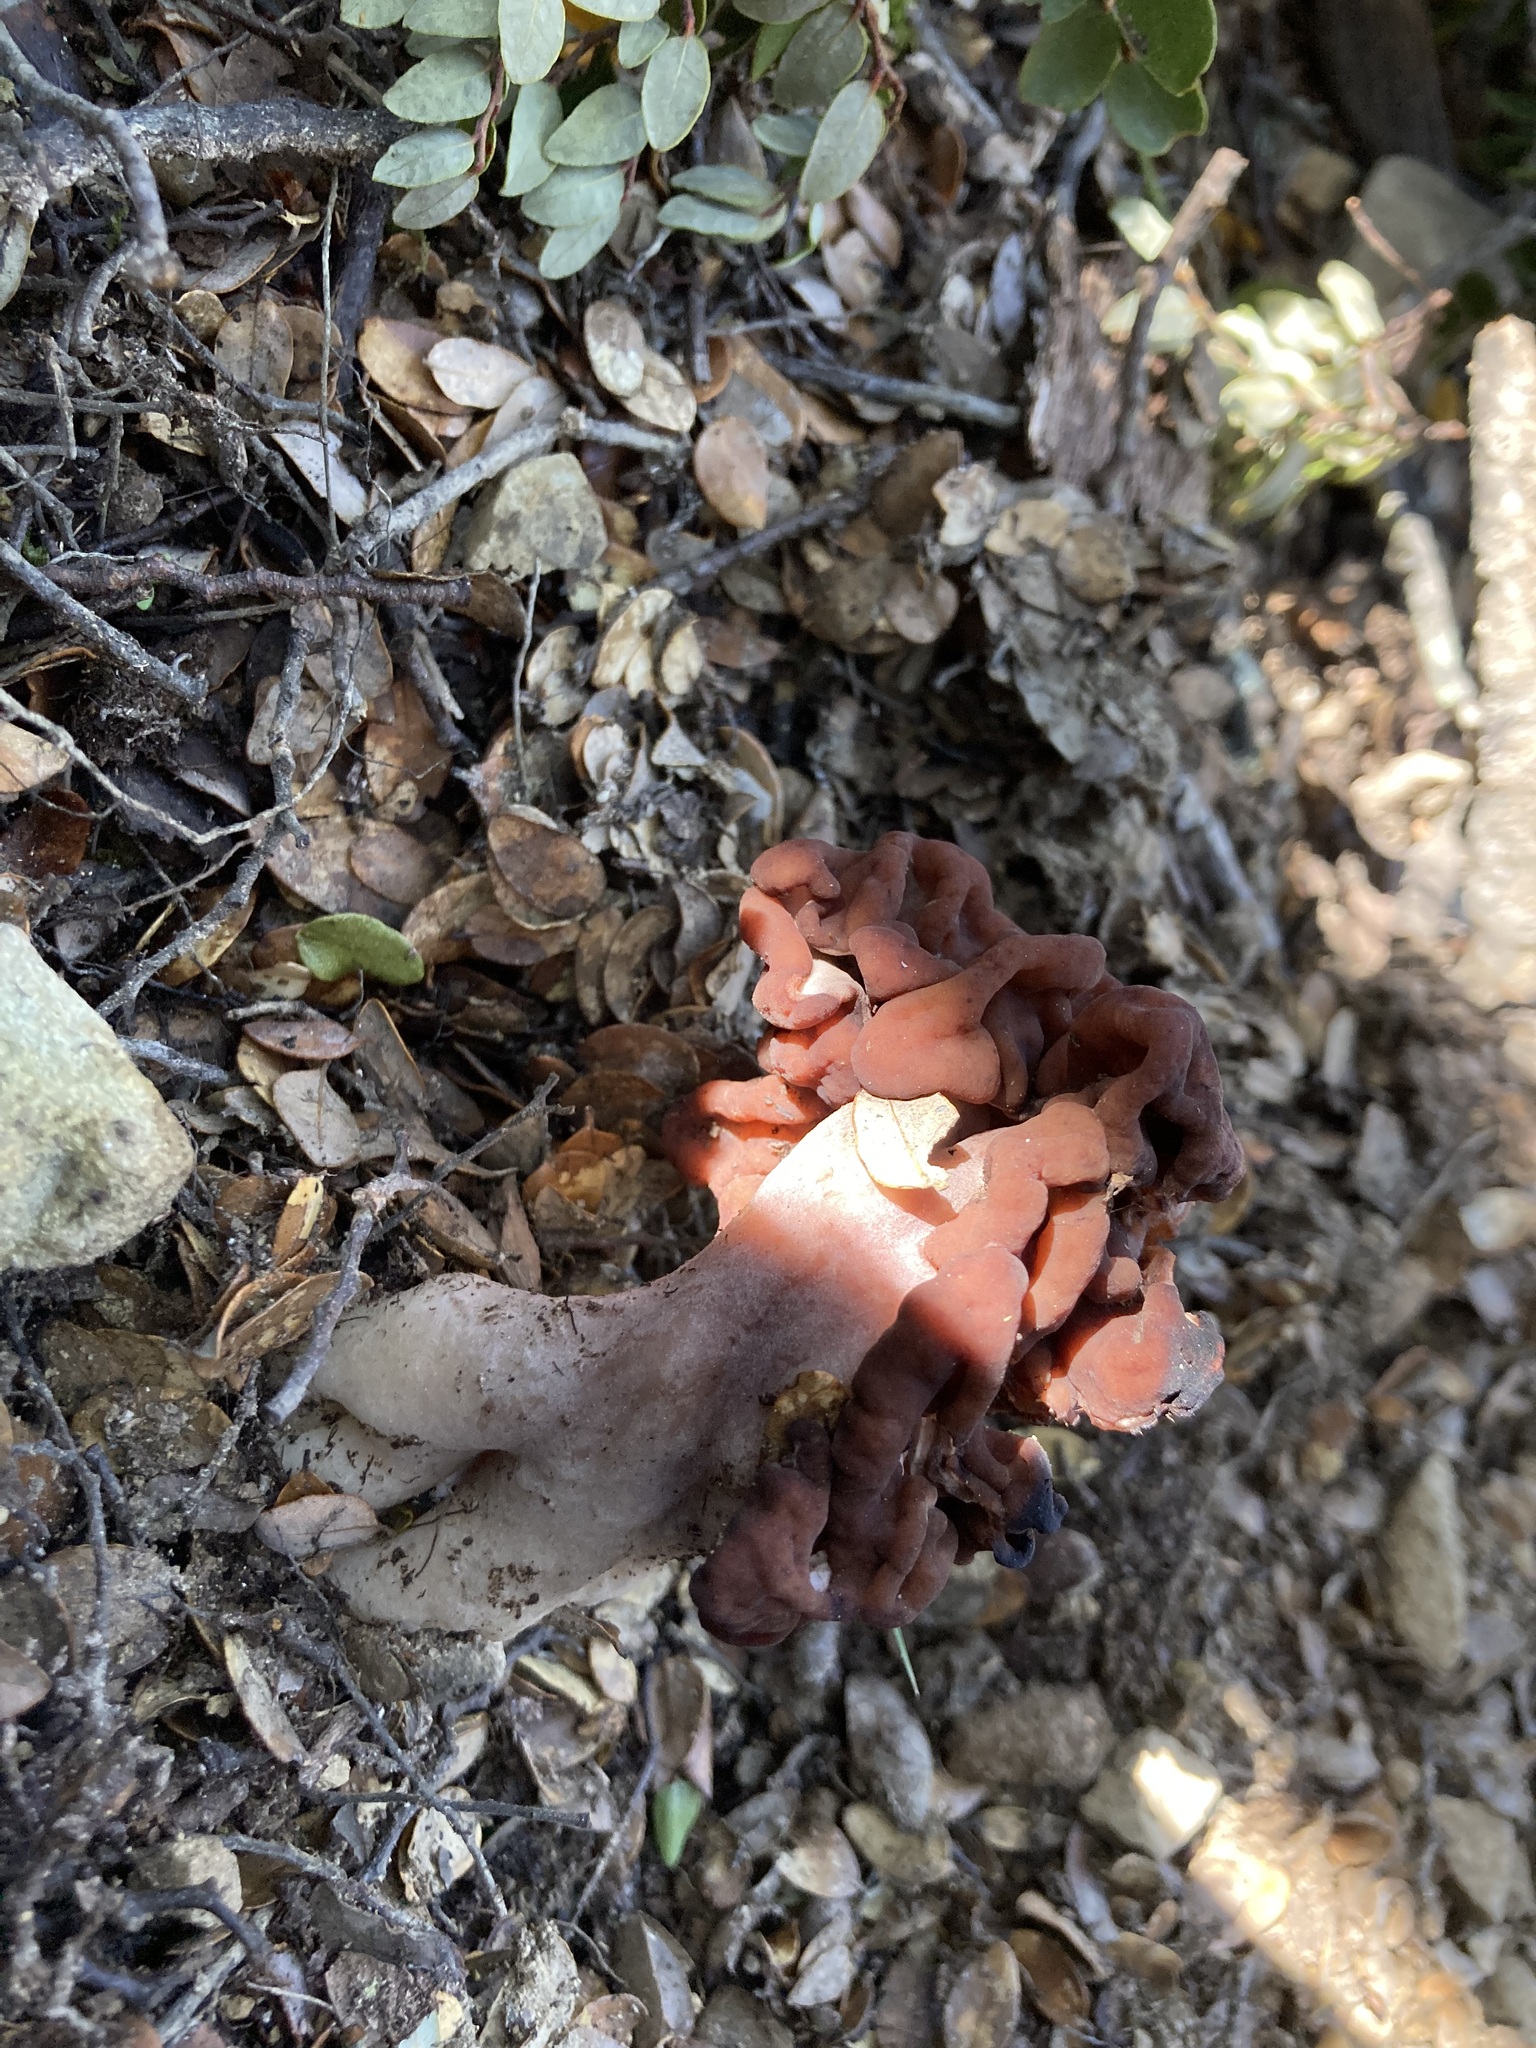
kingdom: Fungi
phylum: Ascomycota
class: Pezizomycetes
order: Pezizales
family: Discinaceae
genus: Gyromitra
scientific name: Gyromitra tasmanica
